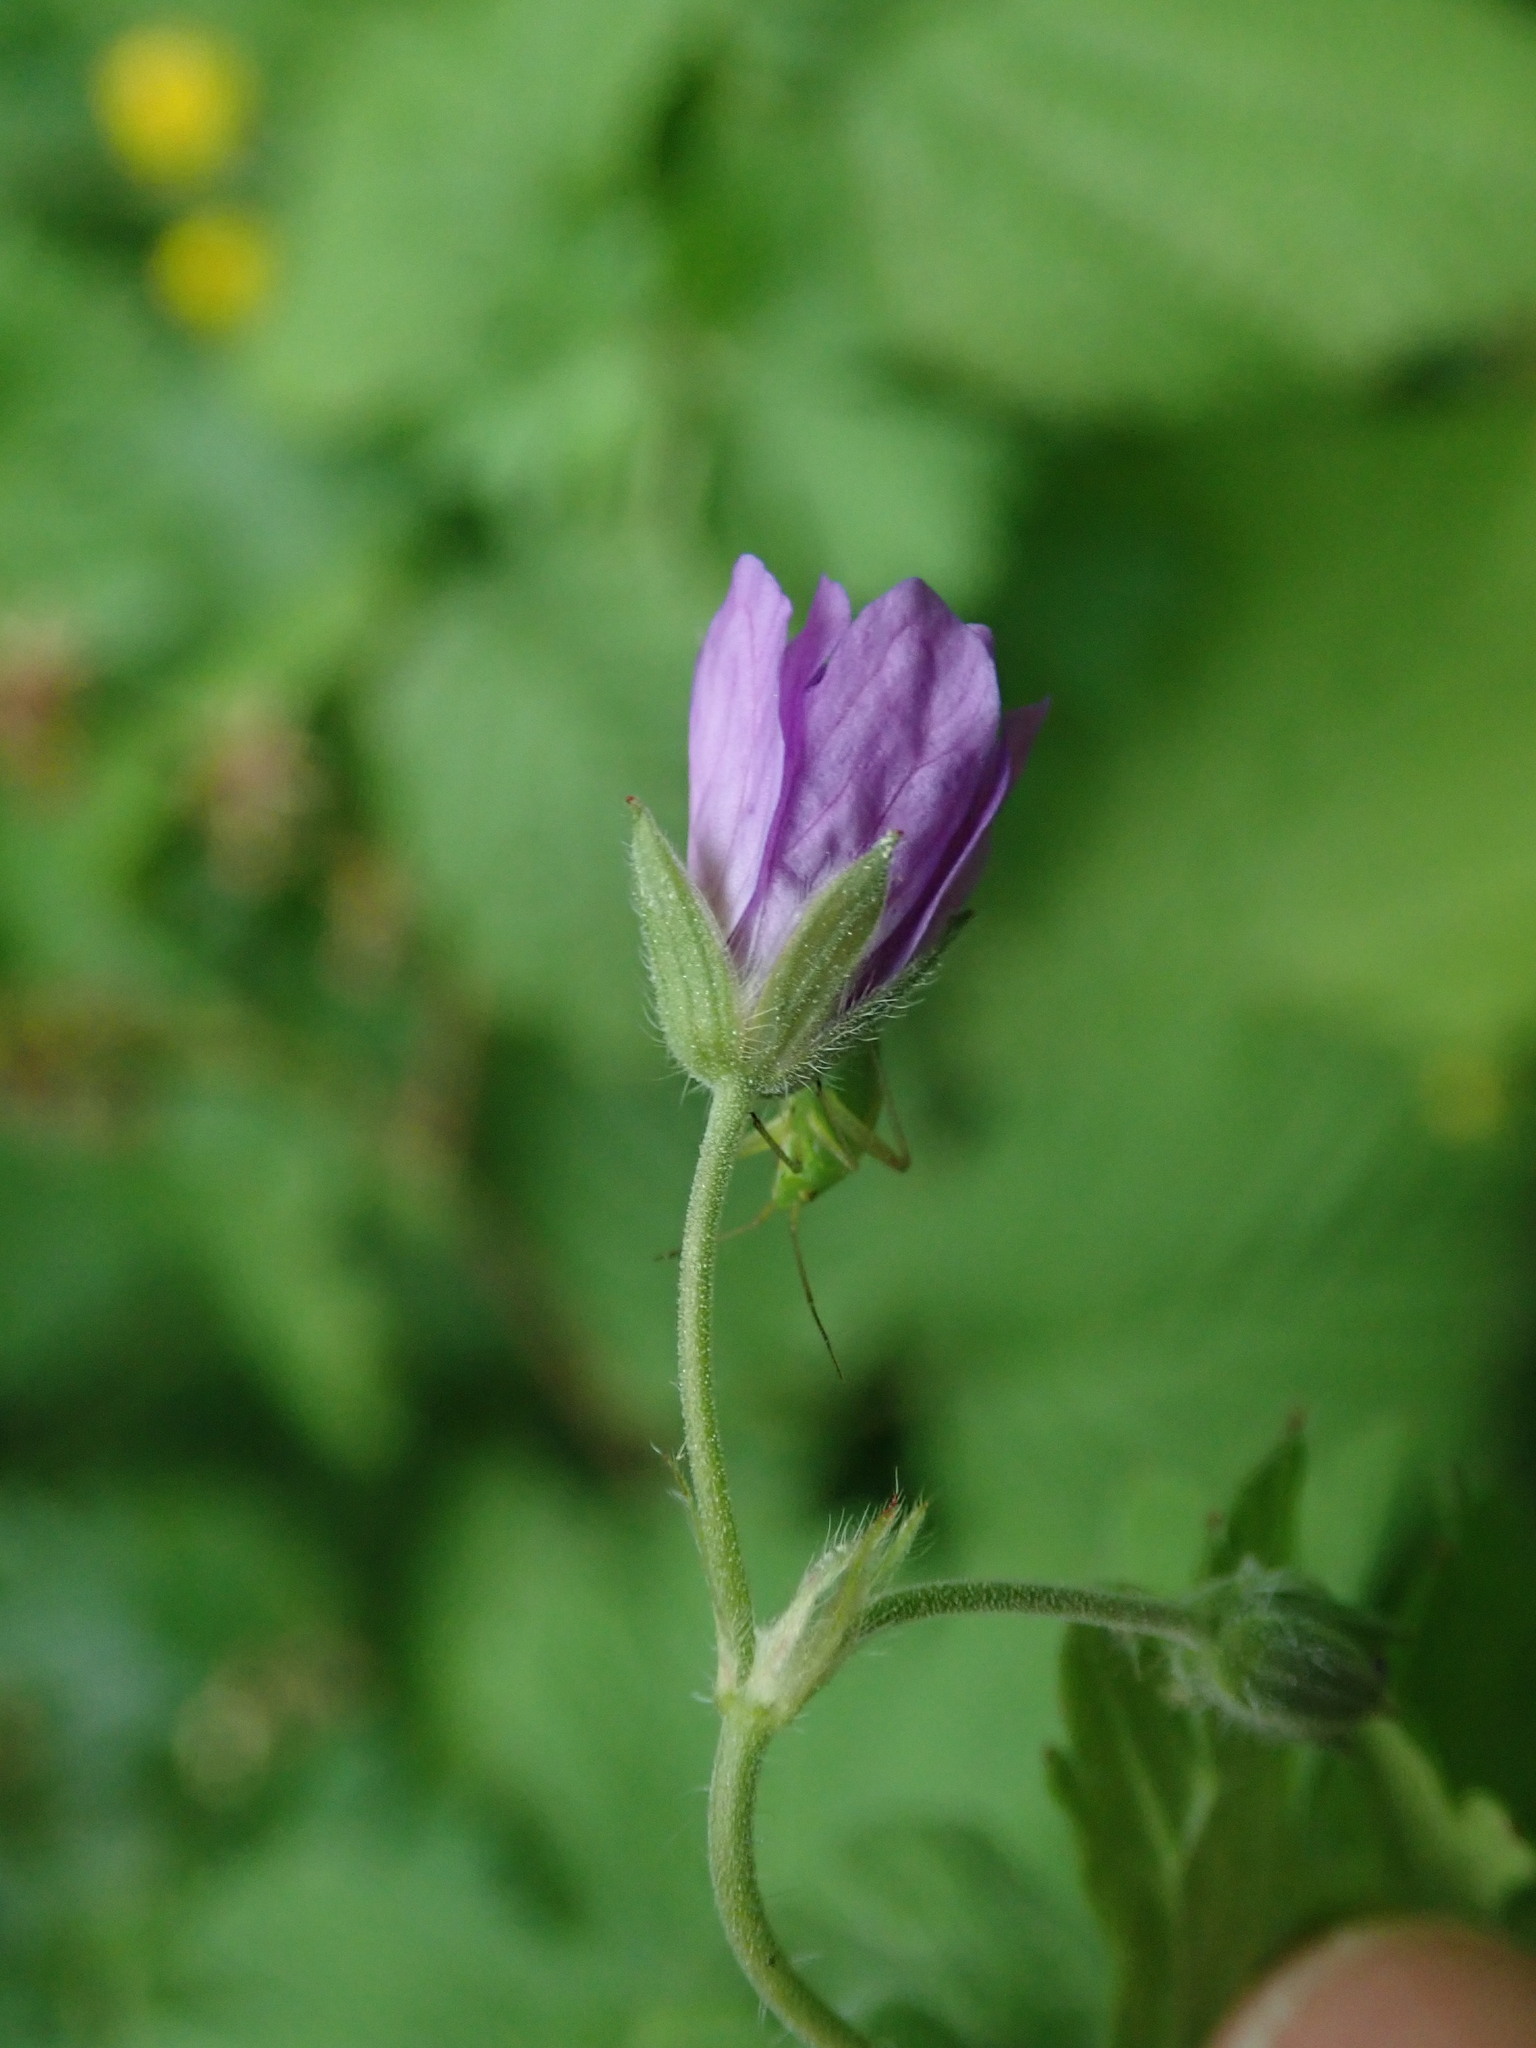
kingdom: Plantae
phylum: Tracheophyta
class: Magnoliopsida
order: Geraniales
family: Geraniaceae
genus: Geranium
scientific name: Geranium pyrenaicum
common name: Hedgerow crane's-bill
